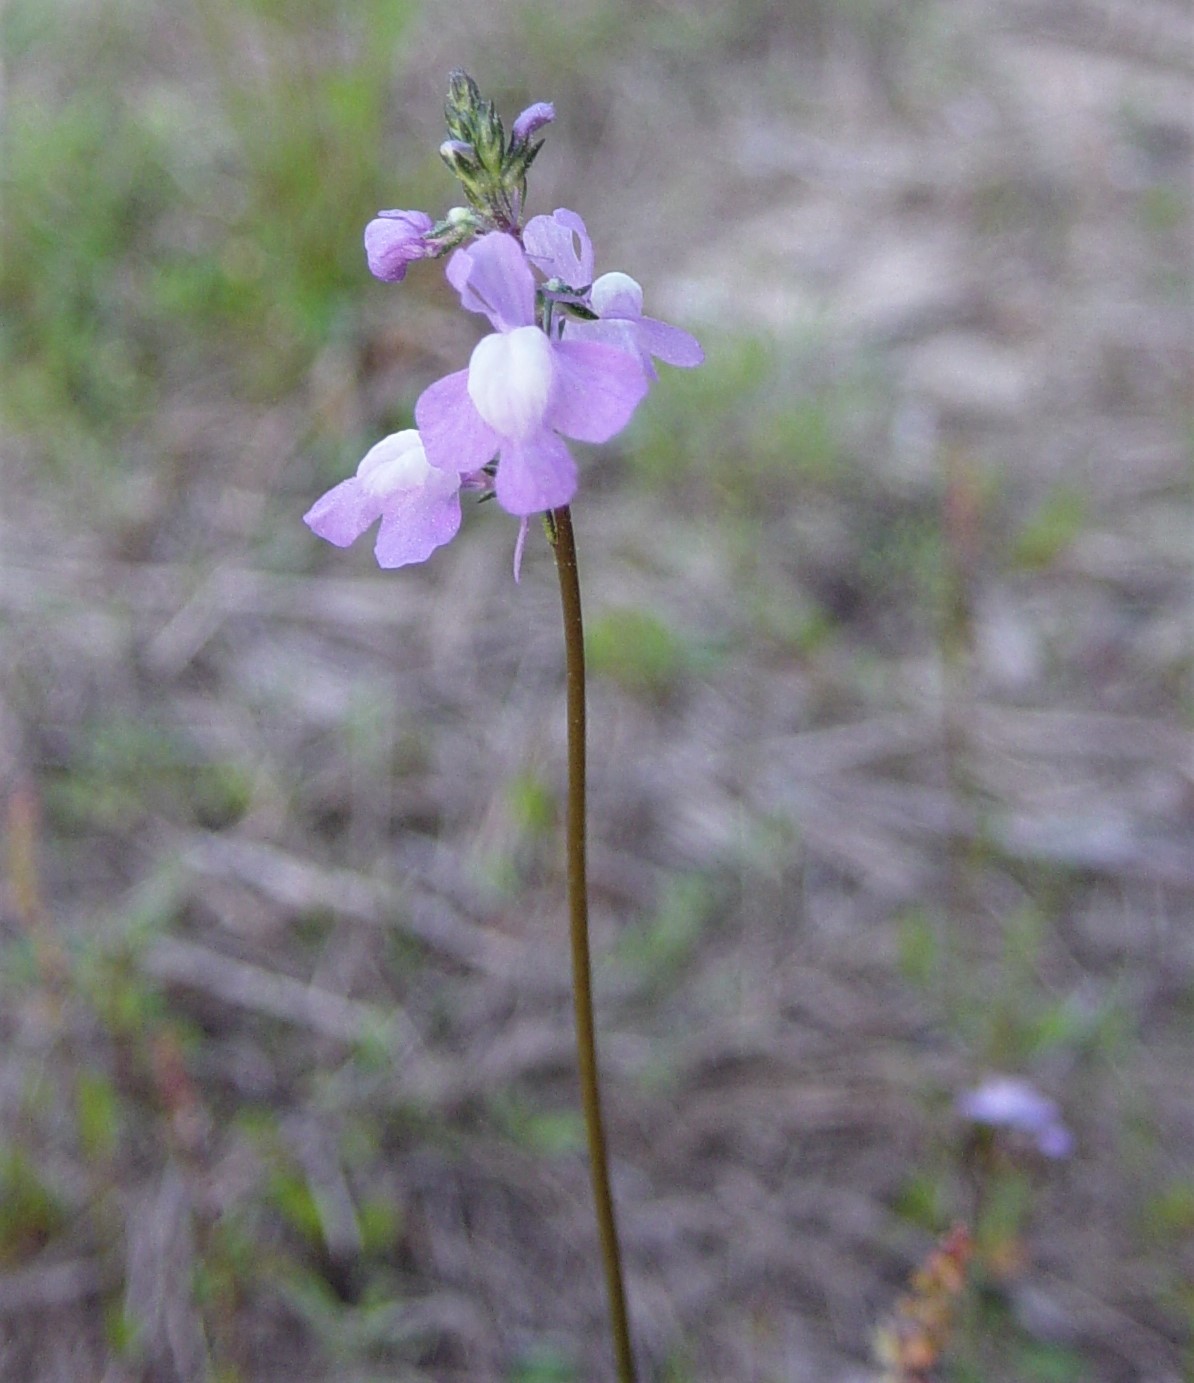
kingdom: Plantae
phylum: Tracheophyta
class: Magnoliopsida
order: Lamiales
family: Plantaginaceae
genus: Nuttallanthus
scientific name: Nuttallanthus canadensis
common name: Blue toadflax
